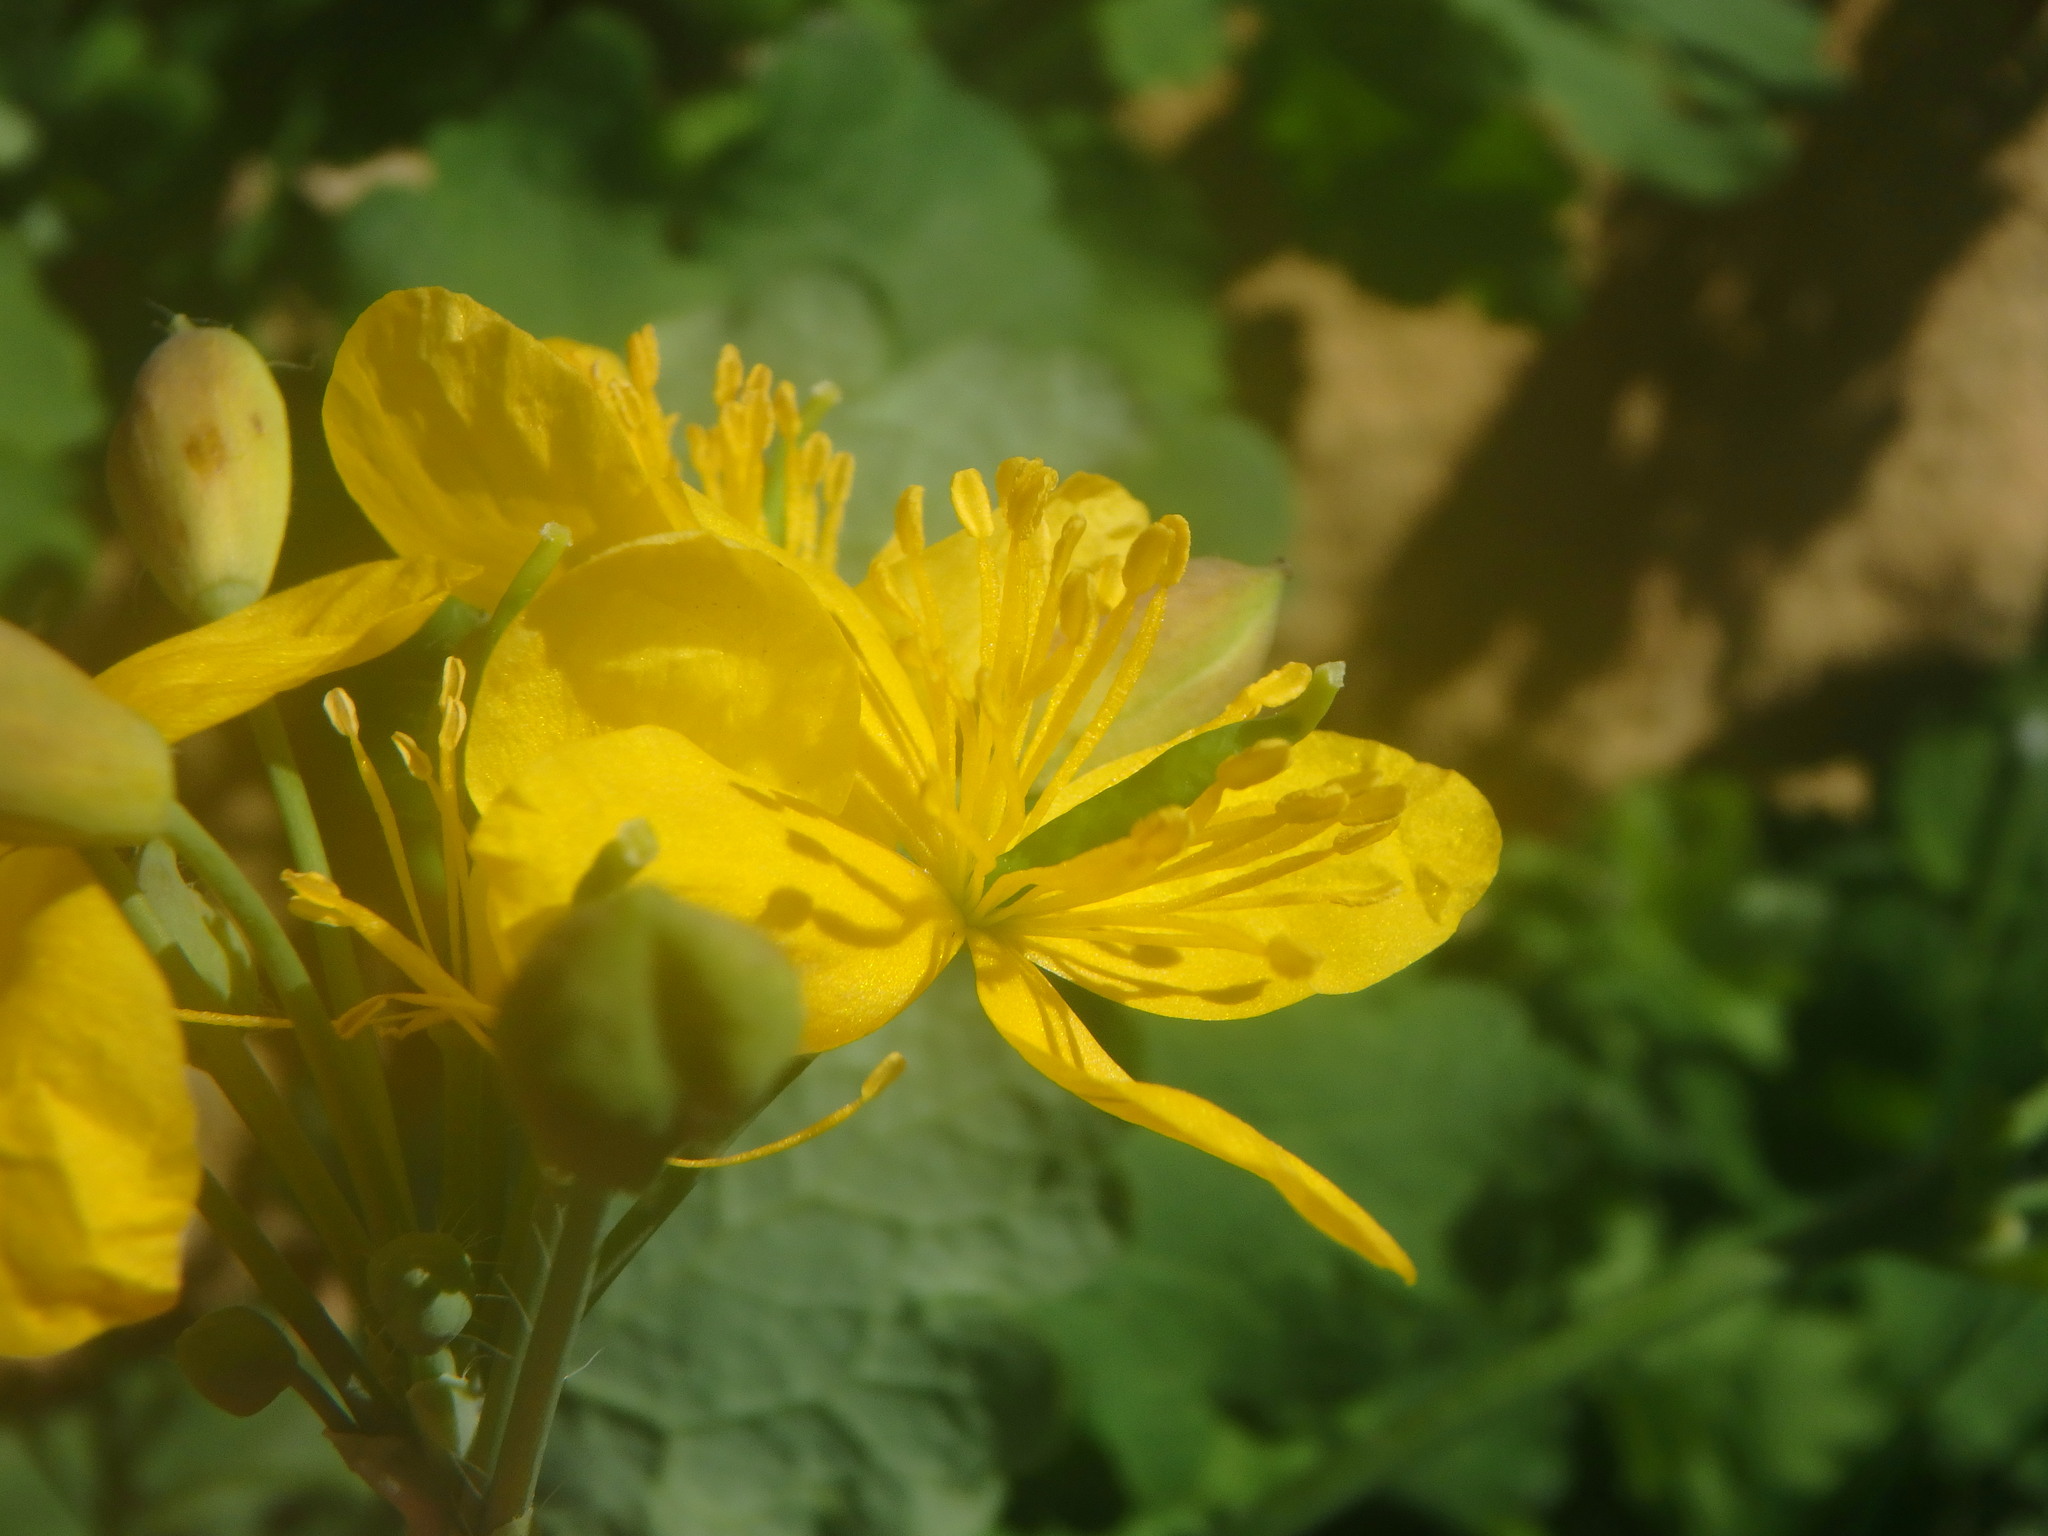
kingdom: Plantae
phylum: Tracheophyta
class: Magnoliopsida
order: Ranunculales
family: Papaveraceae
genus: Chelidonium
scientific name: Chelidonium majus
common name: Greater celandine
